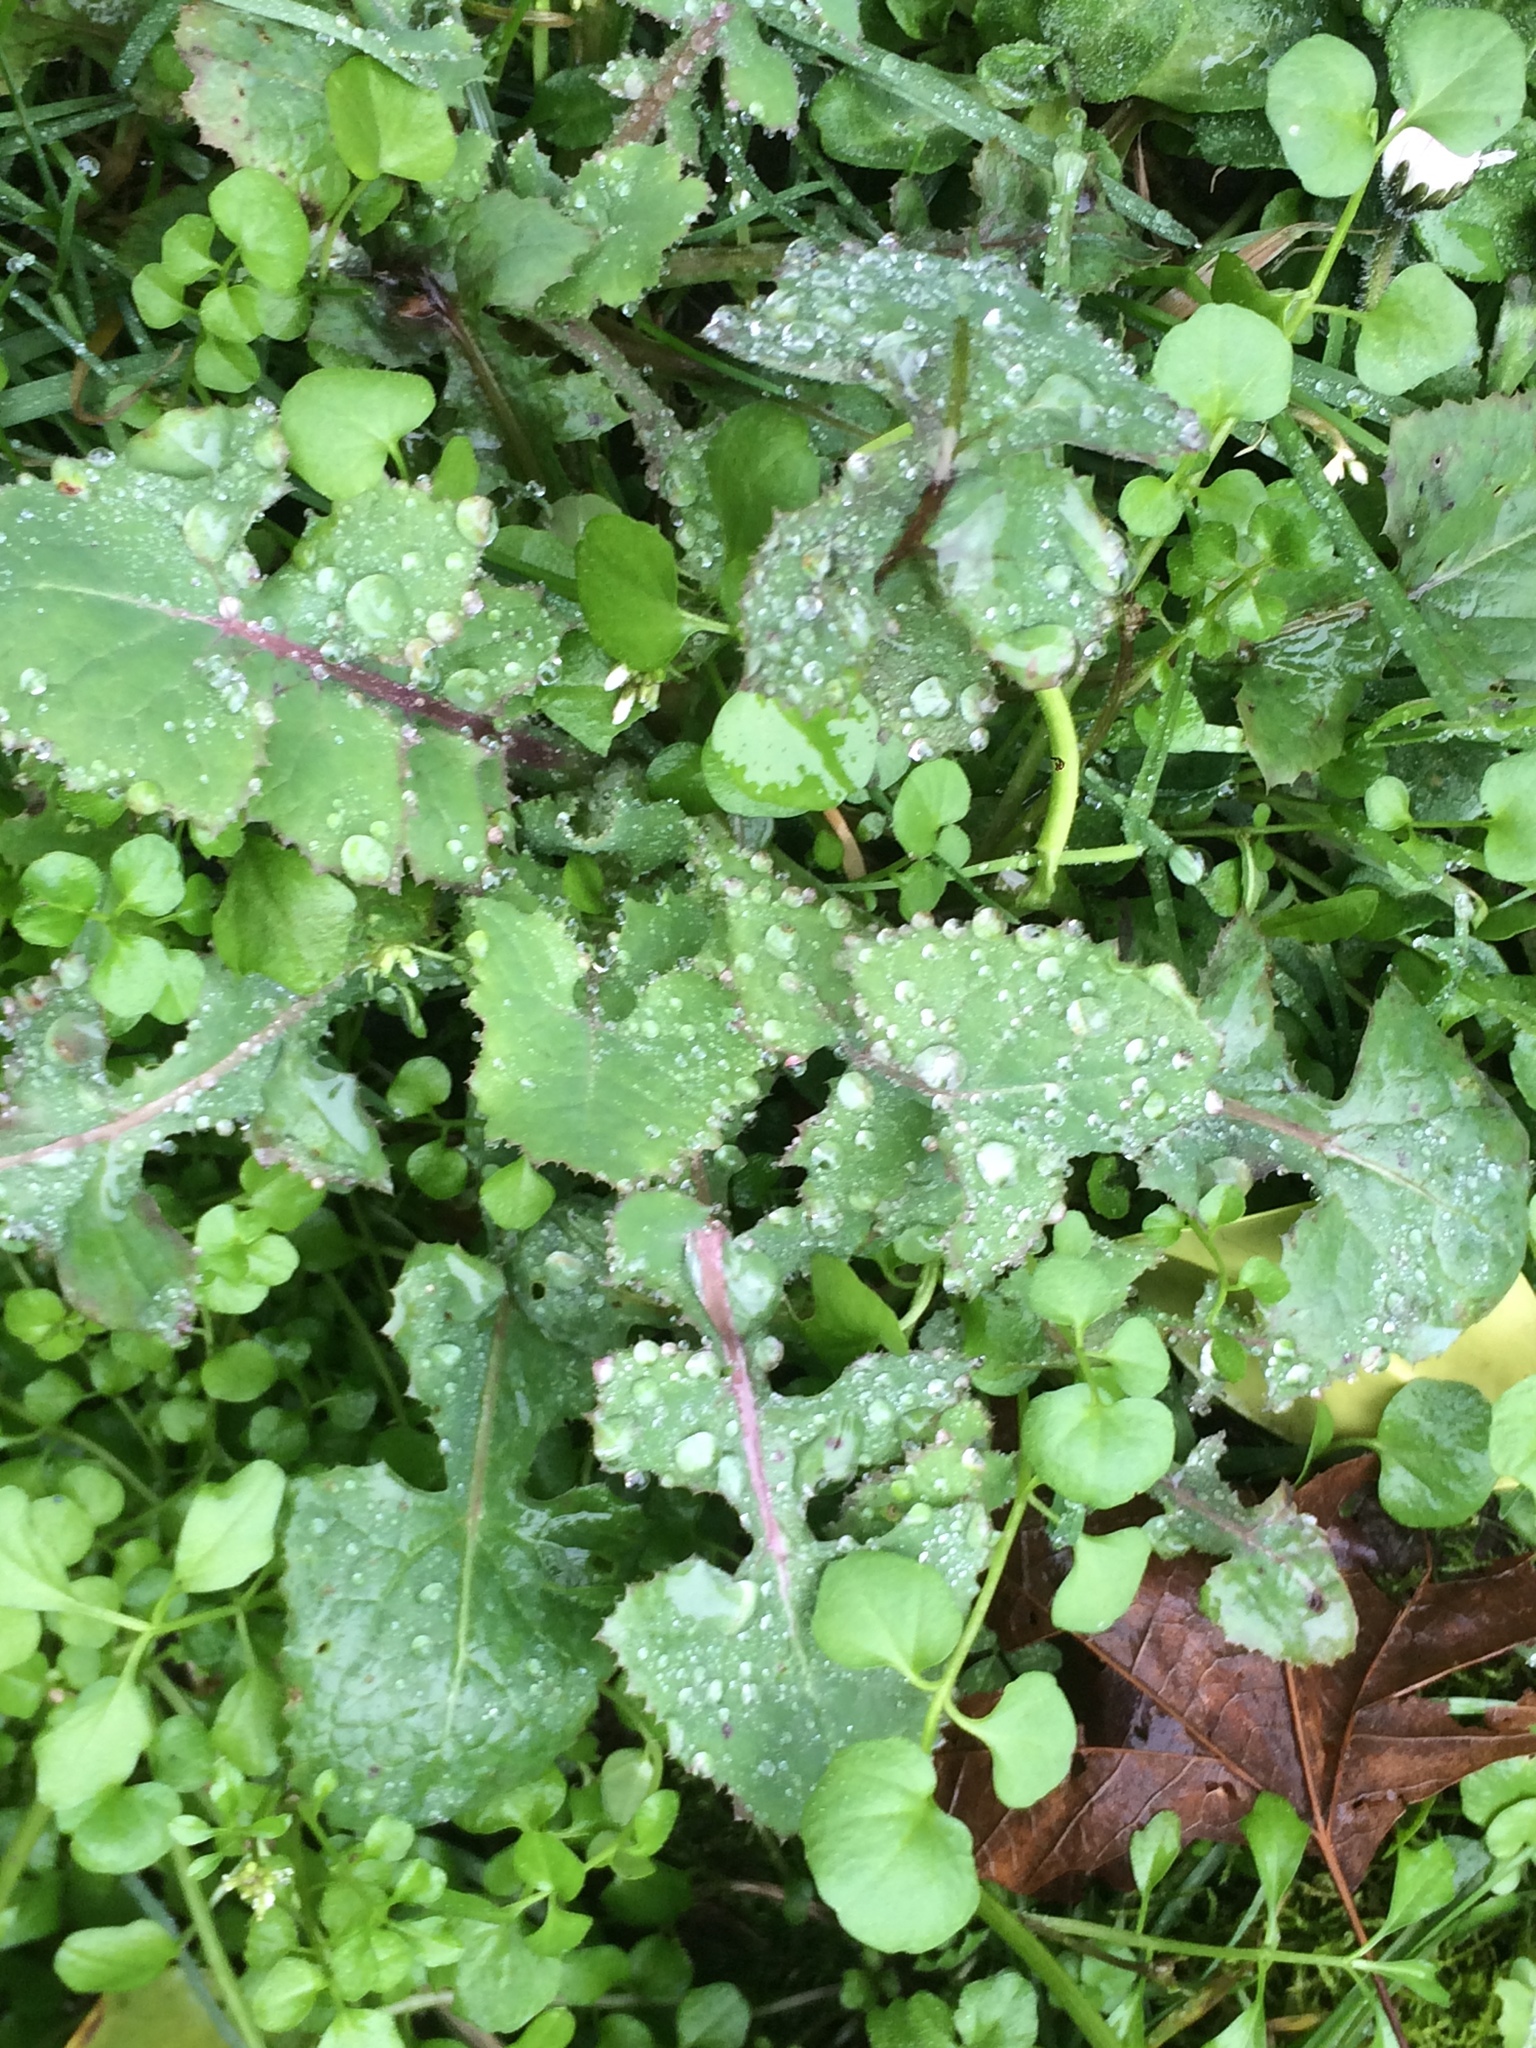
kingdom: Plantae
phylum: Tracheophyta
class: Magnoliopsida
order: Asterales
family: Asteraceae
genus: Sonchus
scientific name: Sonchus oleraceus
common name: Common sowthistle
